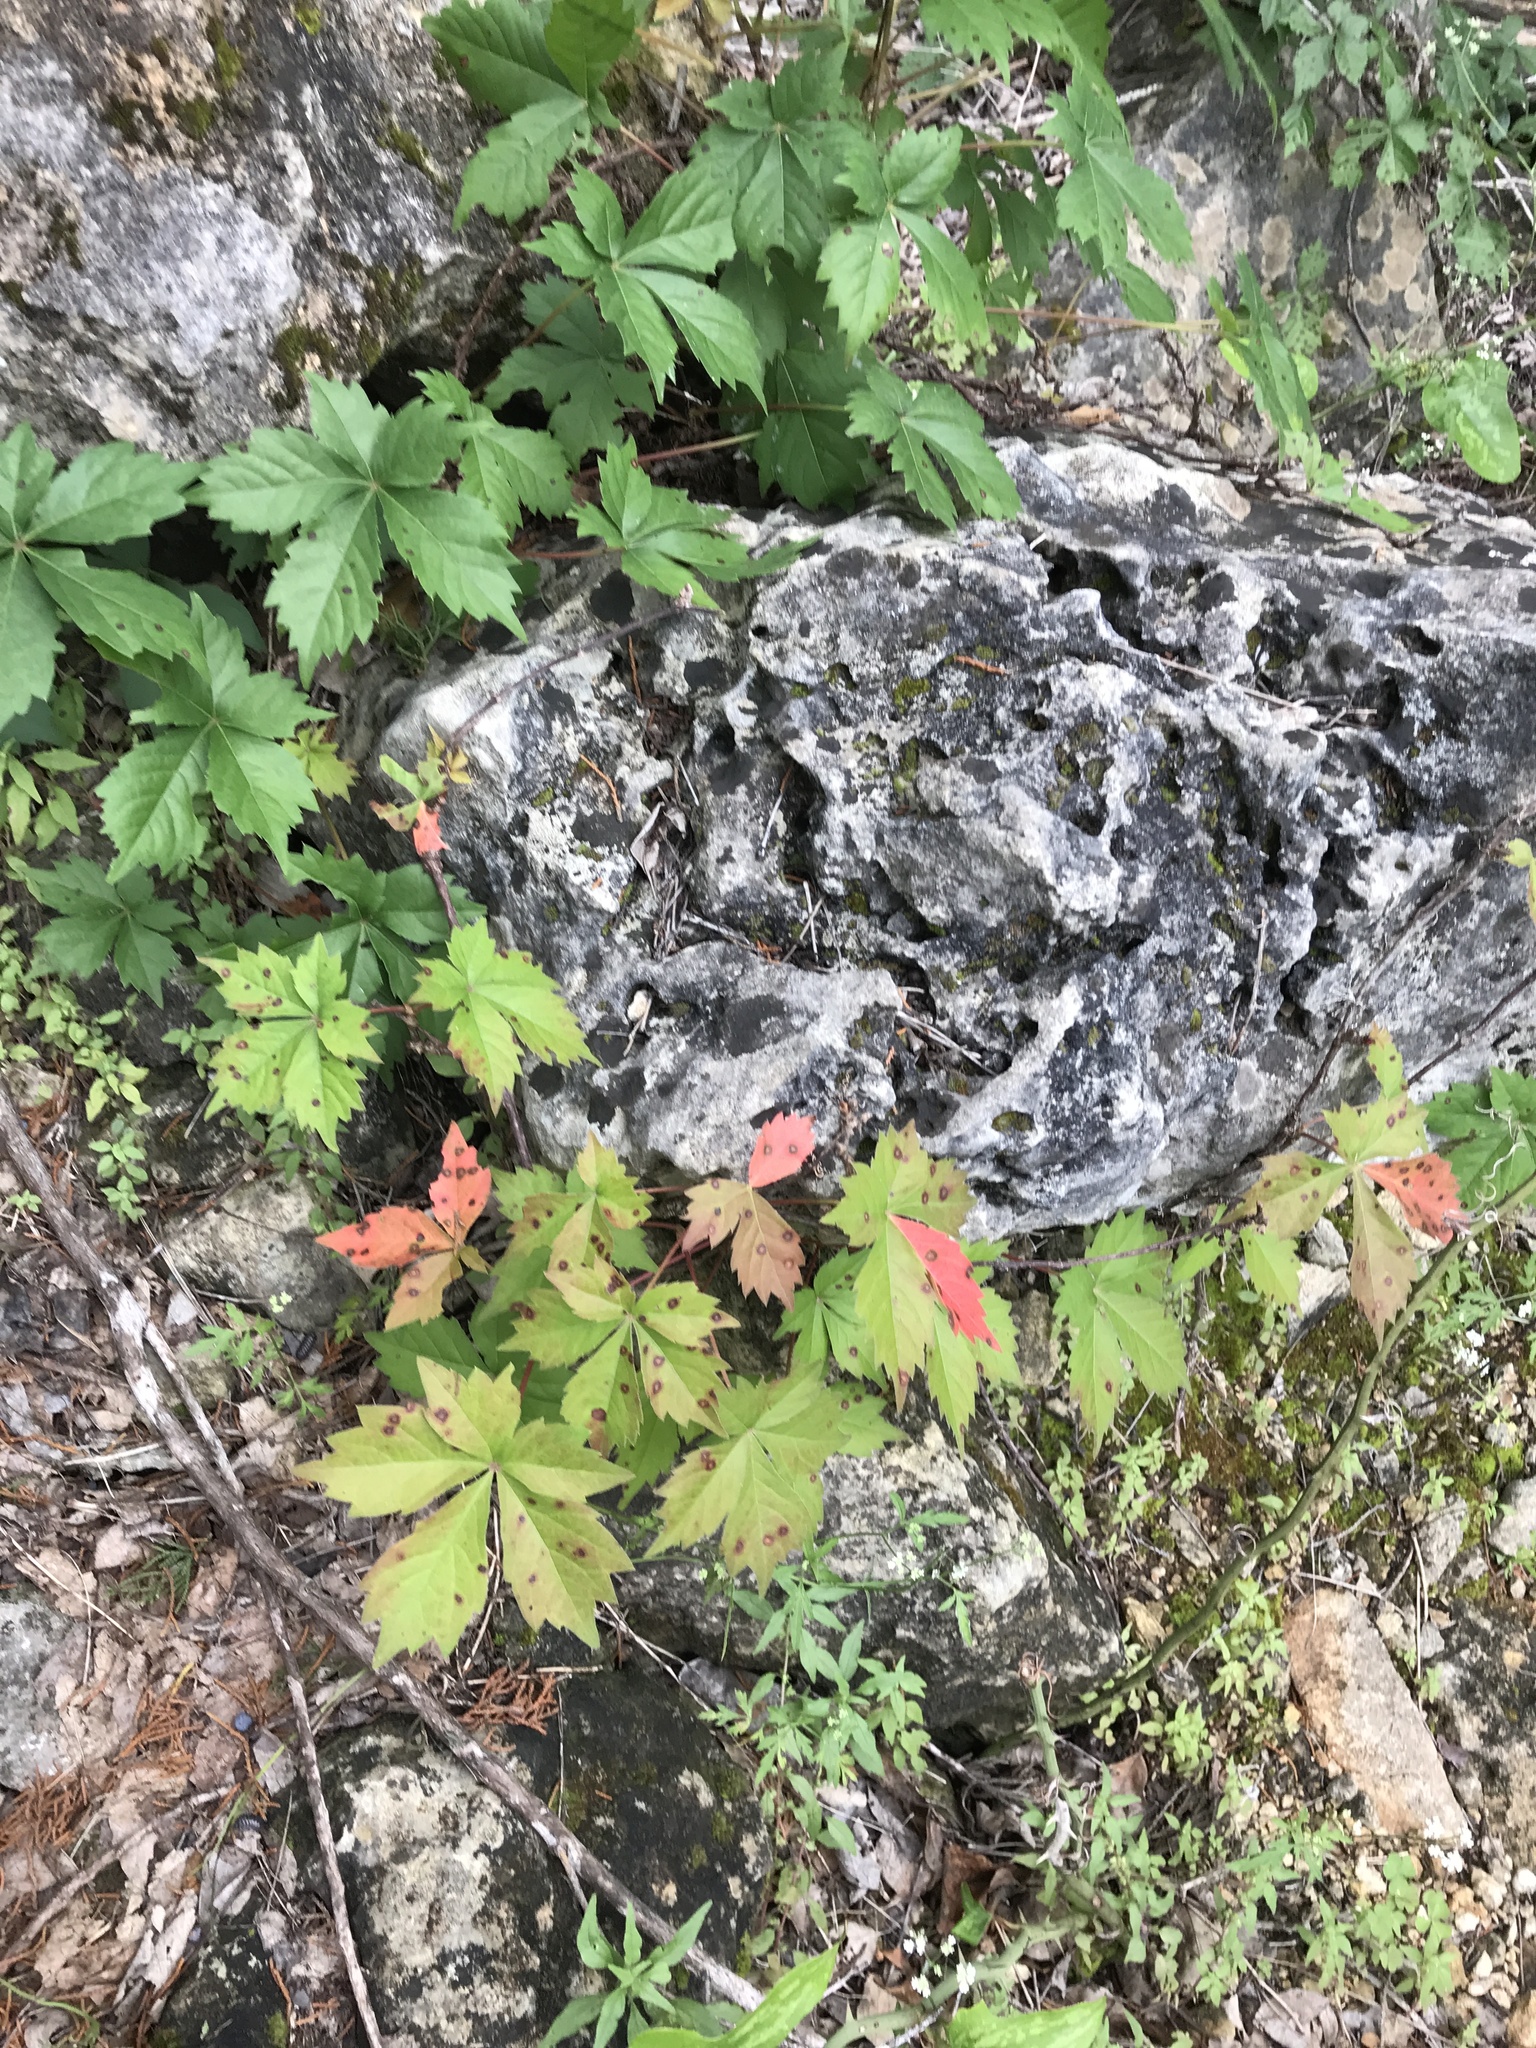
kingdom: Plantae
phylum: Tracheophyta
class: Magnoliopsida
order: Vitales
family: Vitaceae
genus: Parthenocissus
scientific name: Parthenocissus quinquefolia
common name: Virginia-creeper
